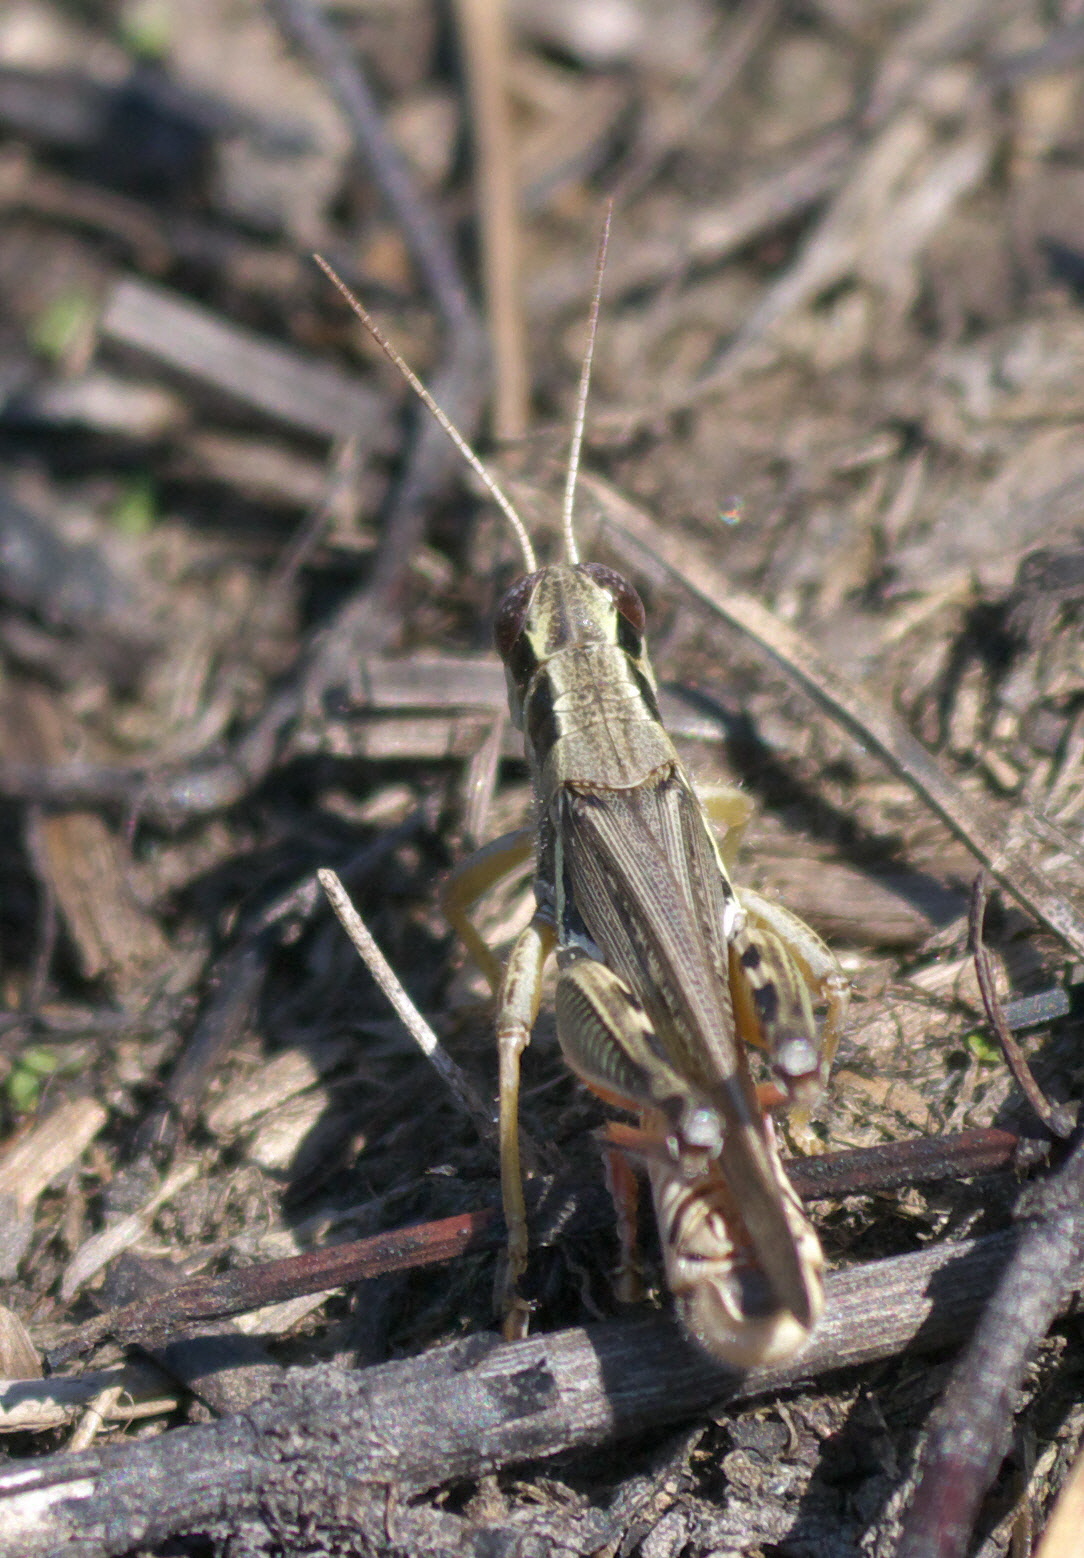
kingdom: Animalia
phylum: Arthropoda
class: Insecta
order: Orthoptera
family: Acrididae
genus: Melanoplus
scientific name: Melanoplus femurrubrum
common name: Red-legged grasshopper
